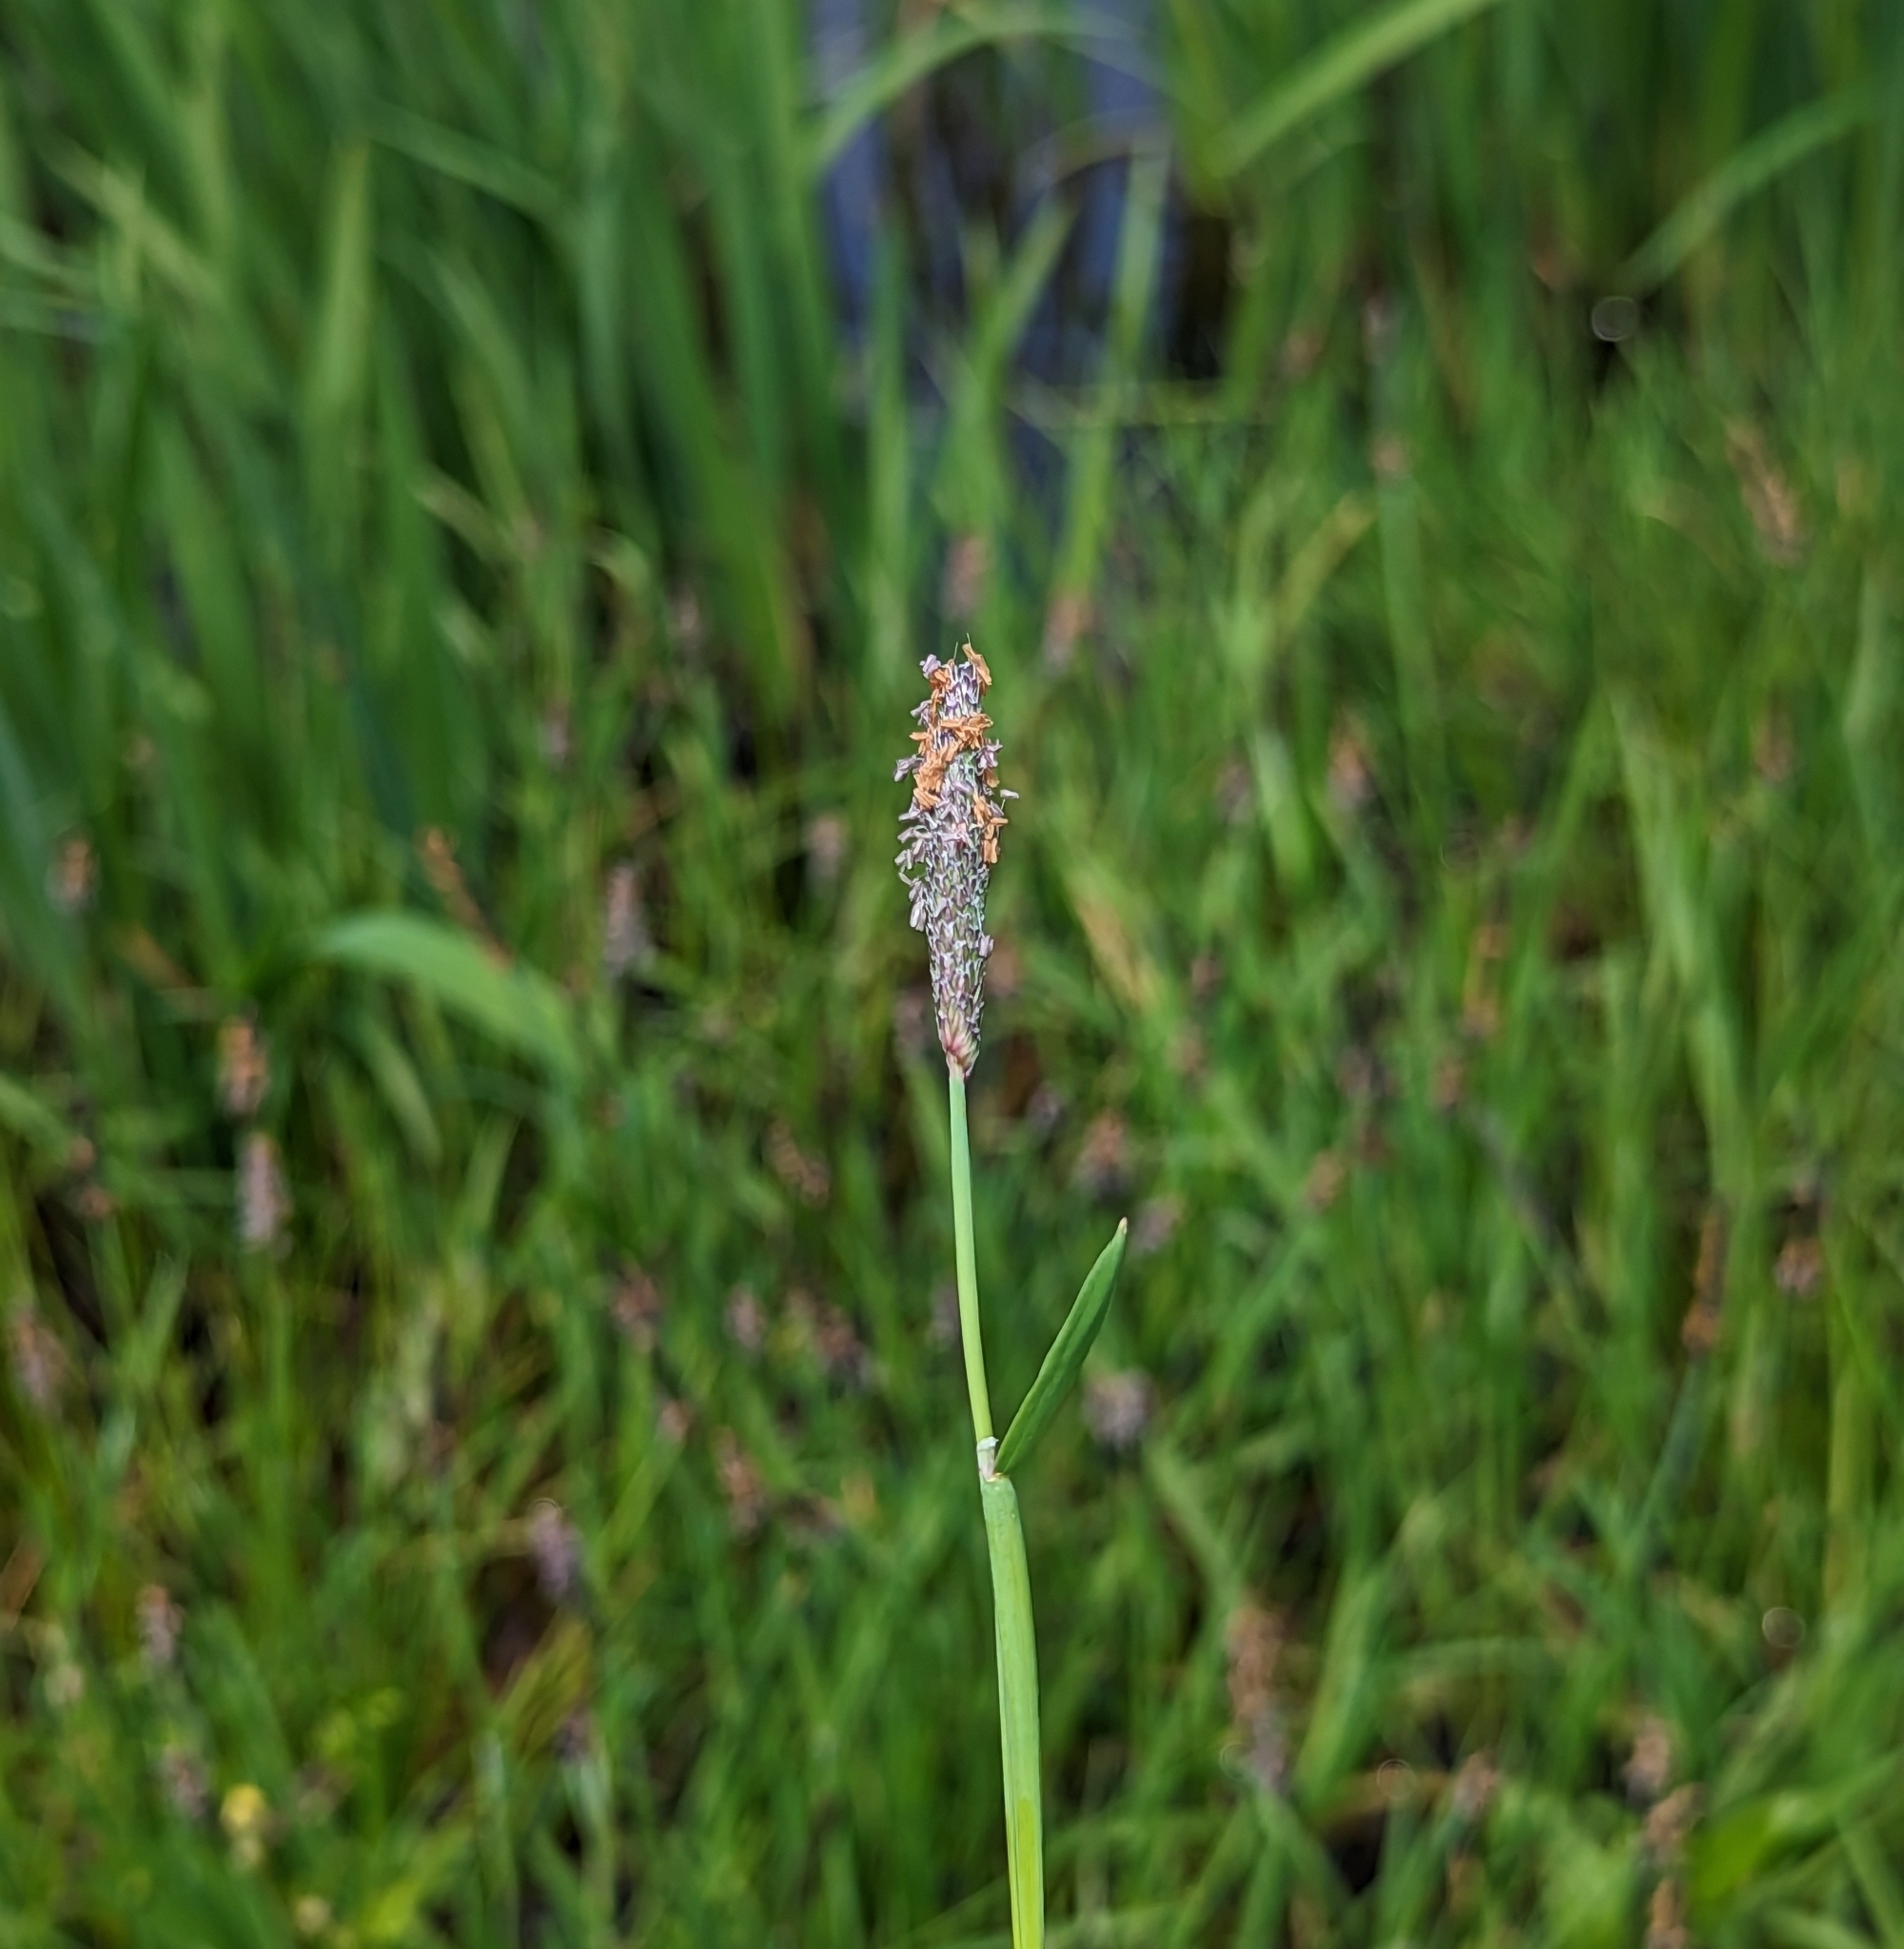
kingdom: Plantae
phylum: Tracheophyta
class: Liliopsida
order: Poales
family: Poaceae
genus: Alopecurus
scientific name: Alopecurus geniculatus
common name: Water foxtail
